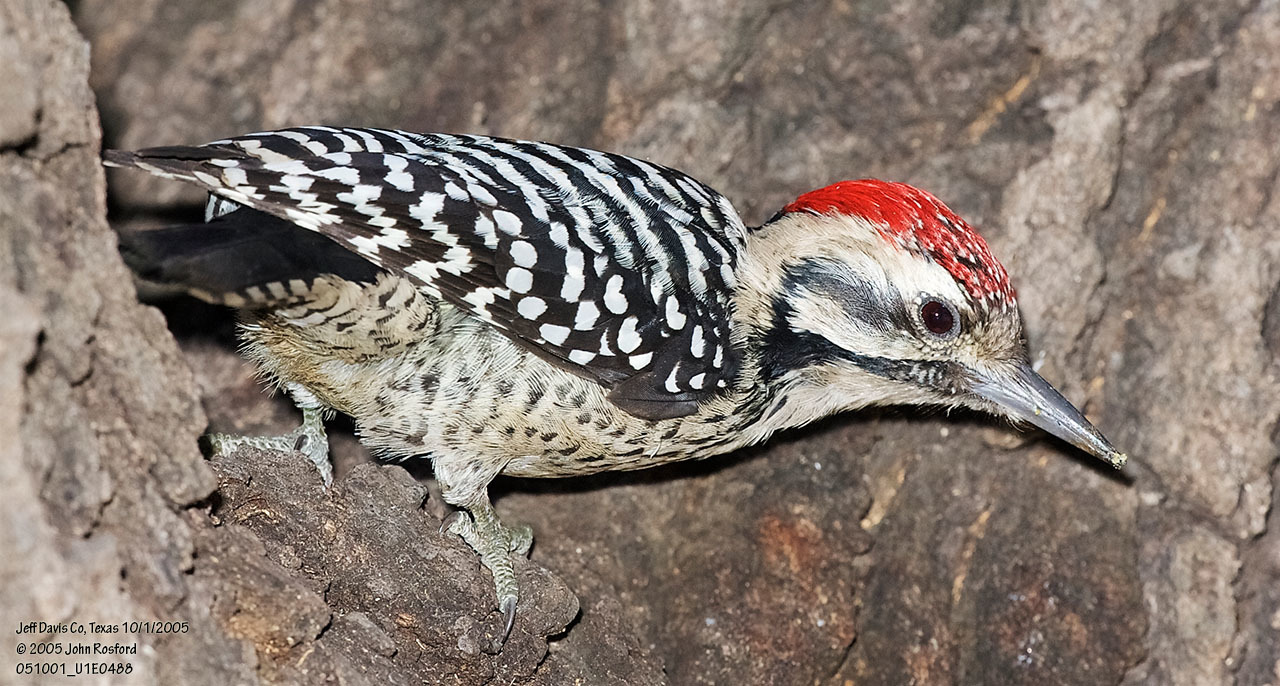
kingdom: Animalia
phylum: Chordata
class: Aves
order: Piciformes
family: Picidae
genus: Dryobates
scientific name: Dryobates scalaris
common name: Ladder-backed woodpecker
